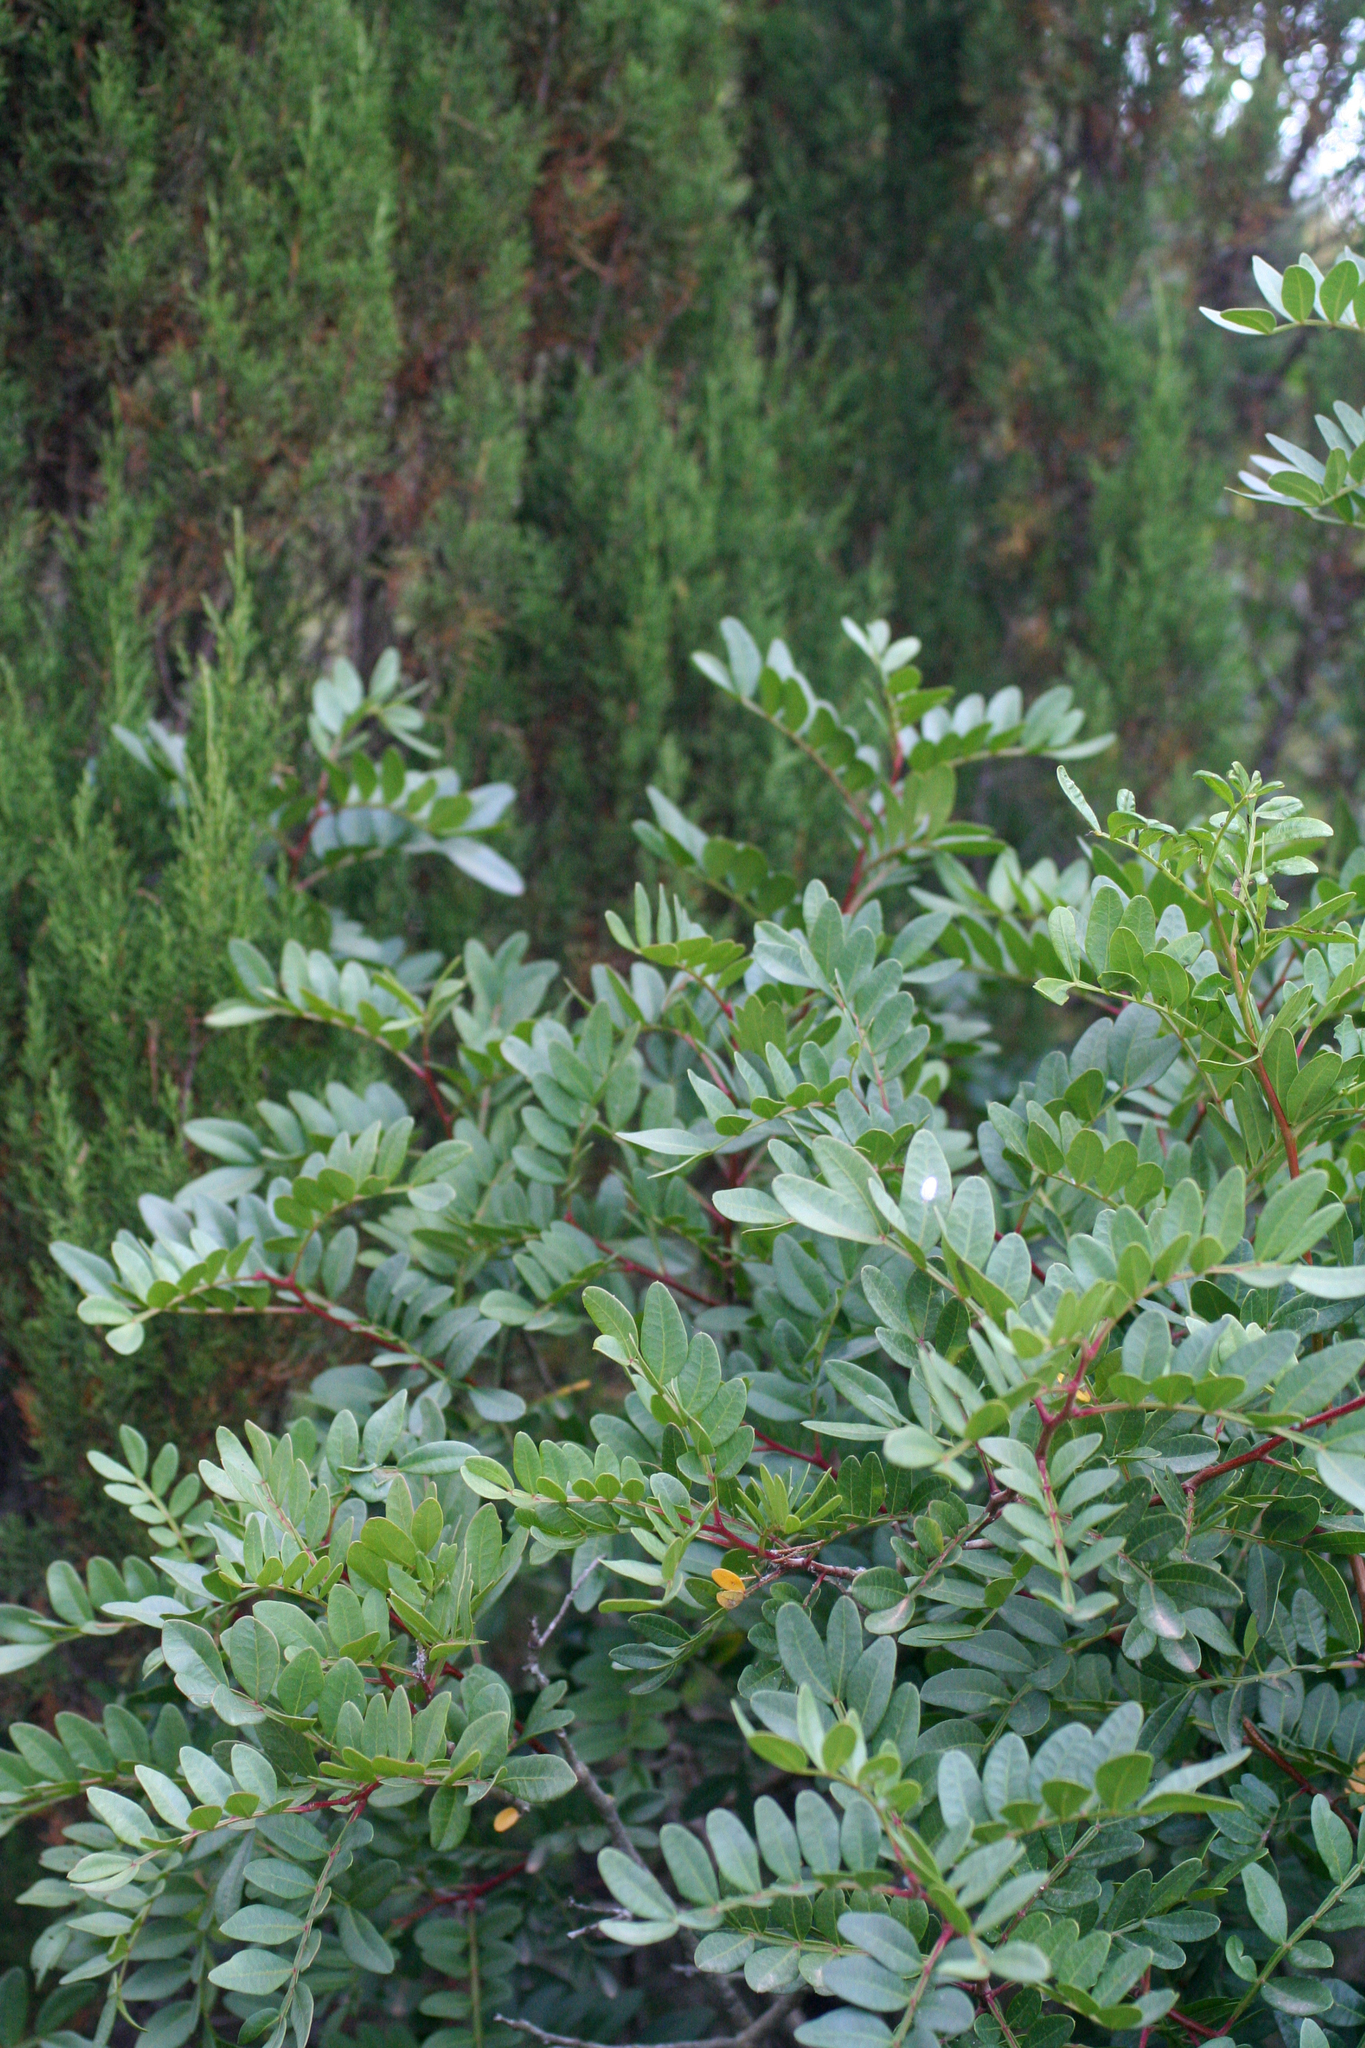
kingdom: Plantae
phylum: Tracheophyta
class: Magnoliopsida
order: Sapindales
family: Anacardiaceae
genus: Pistacia
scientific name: Pistacia lentiscus
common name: Lentisk
